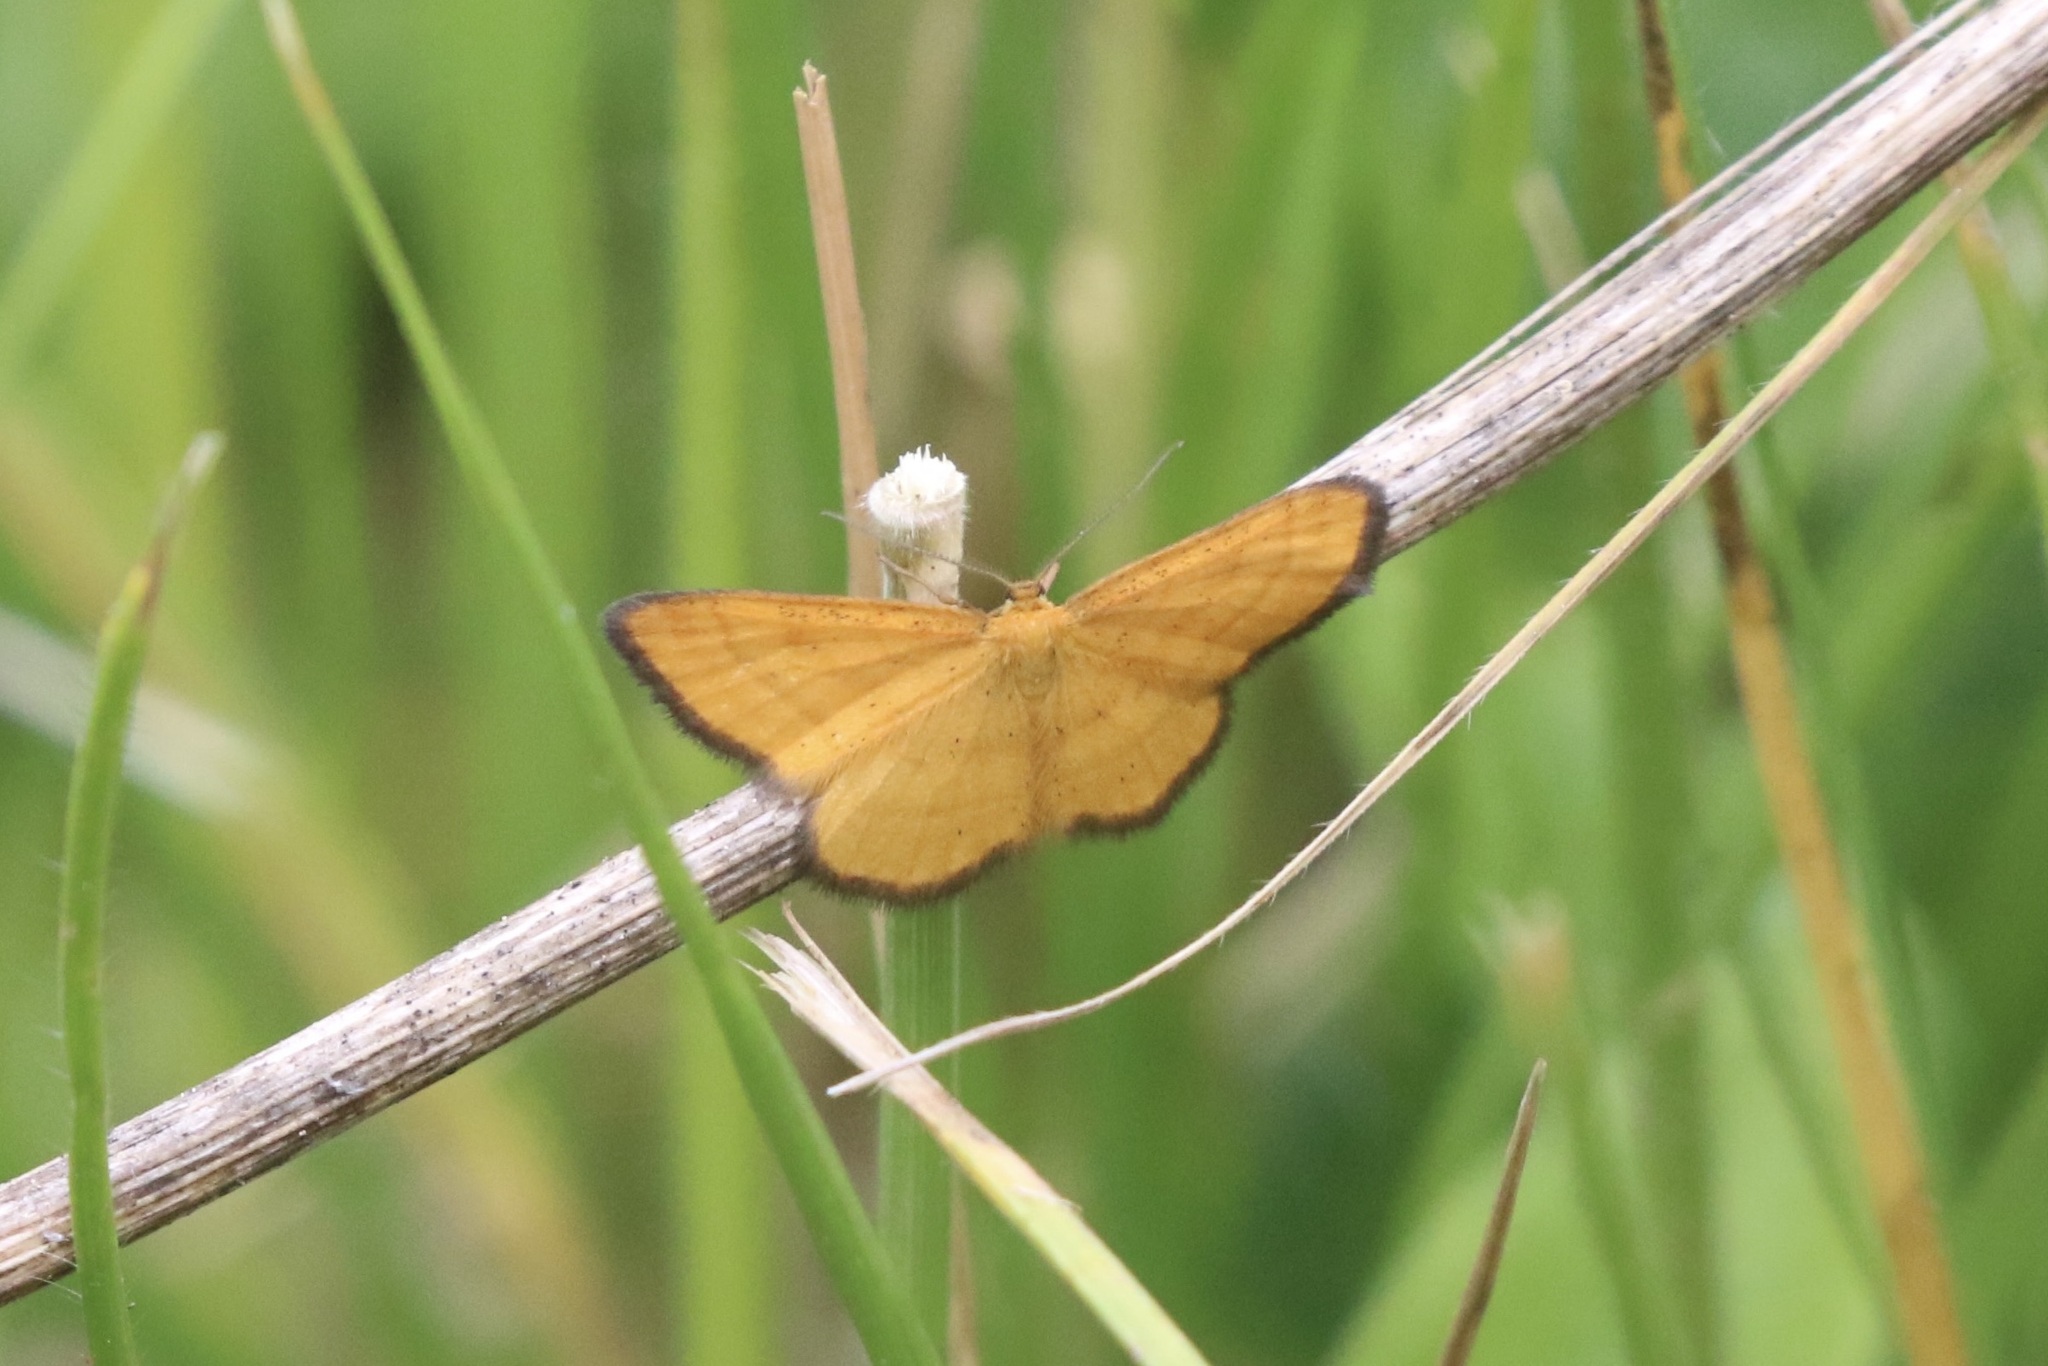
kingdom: Animalia
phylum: Arthropoda
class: Insecta
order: Lepidoptera
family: Geometridae
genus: Idaea
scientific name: Idaea flaveolaria
